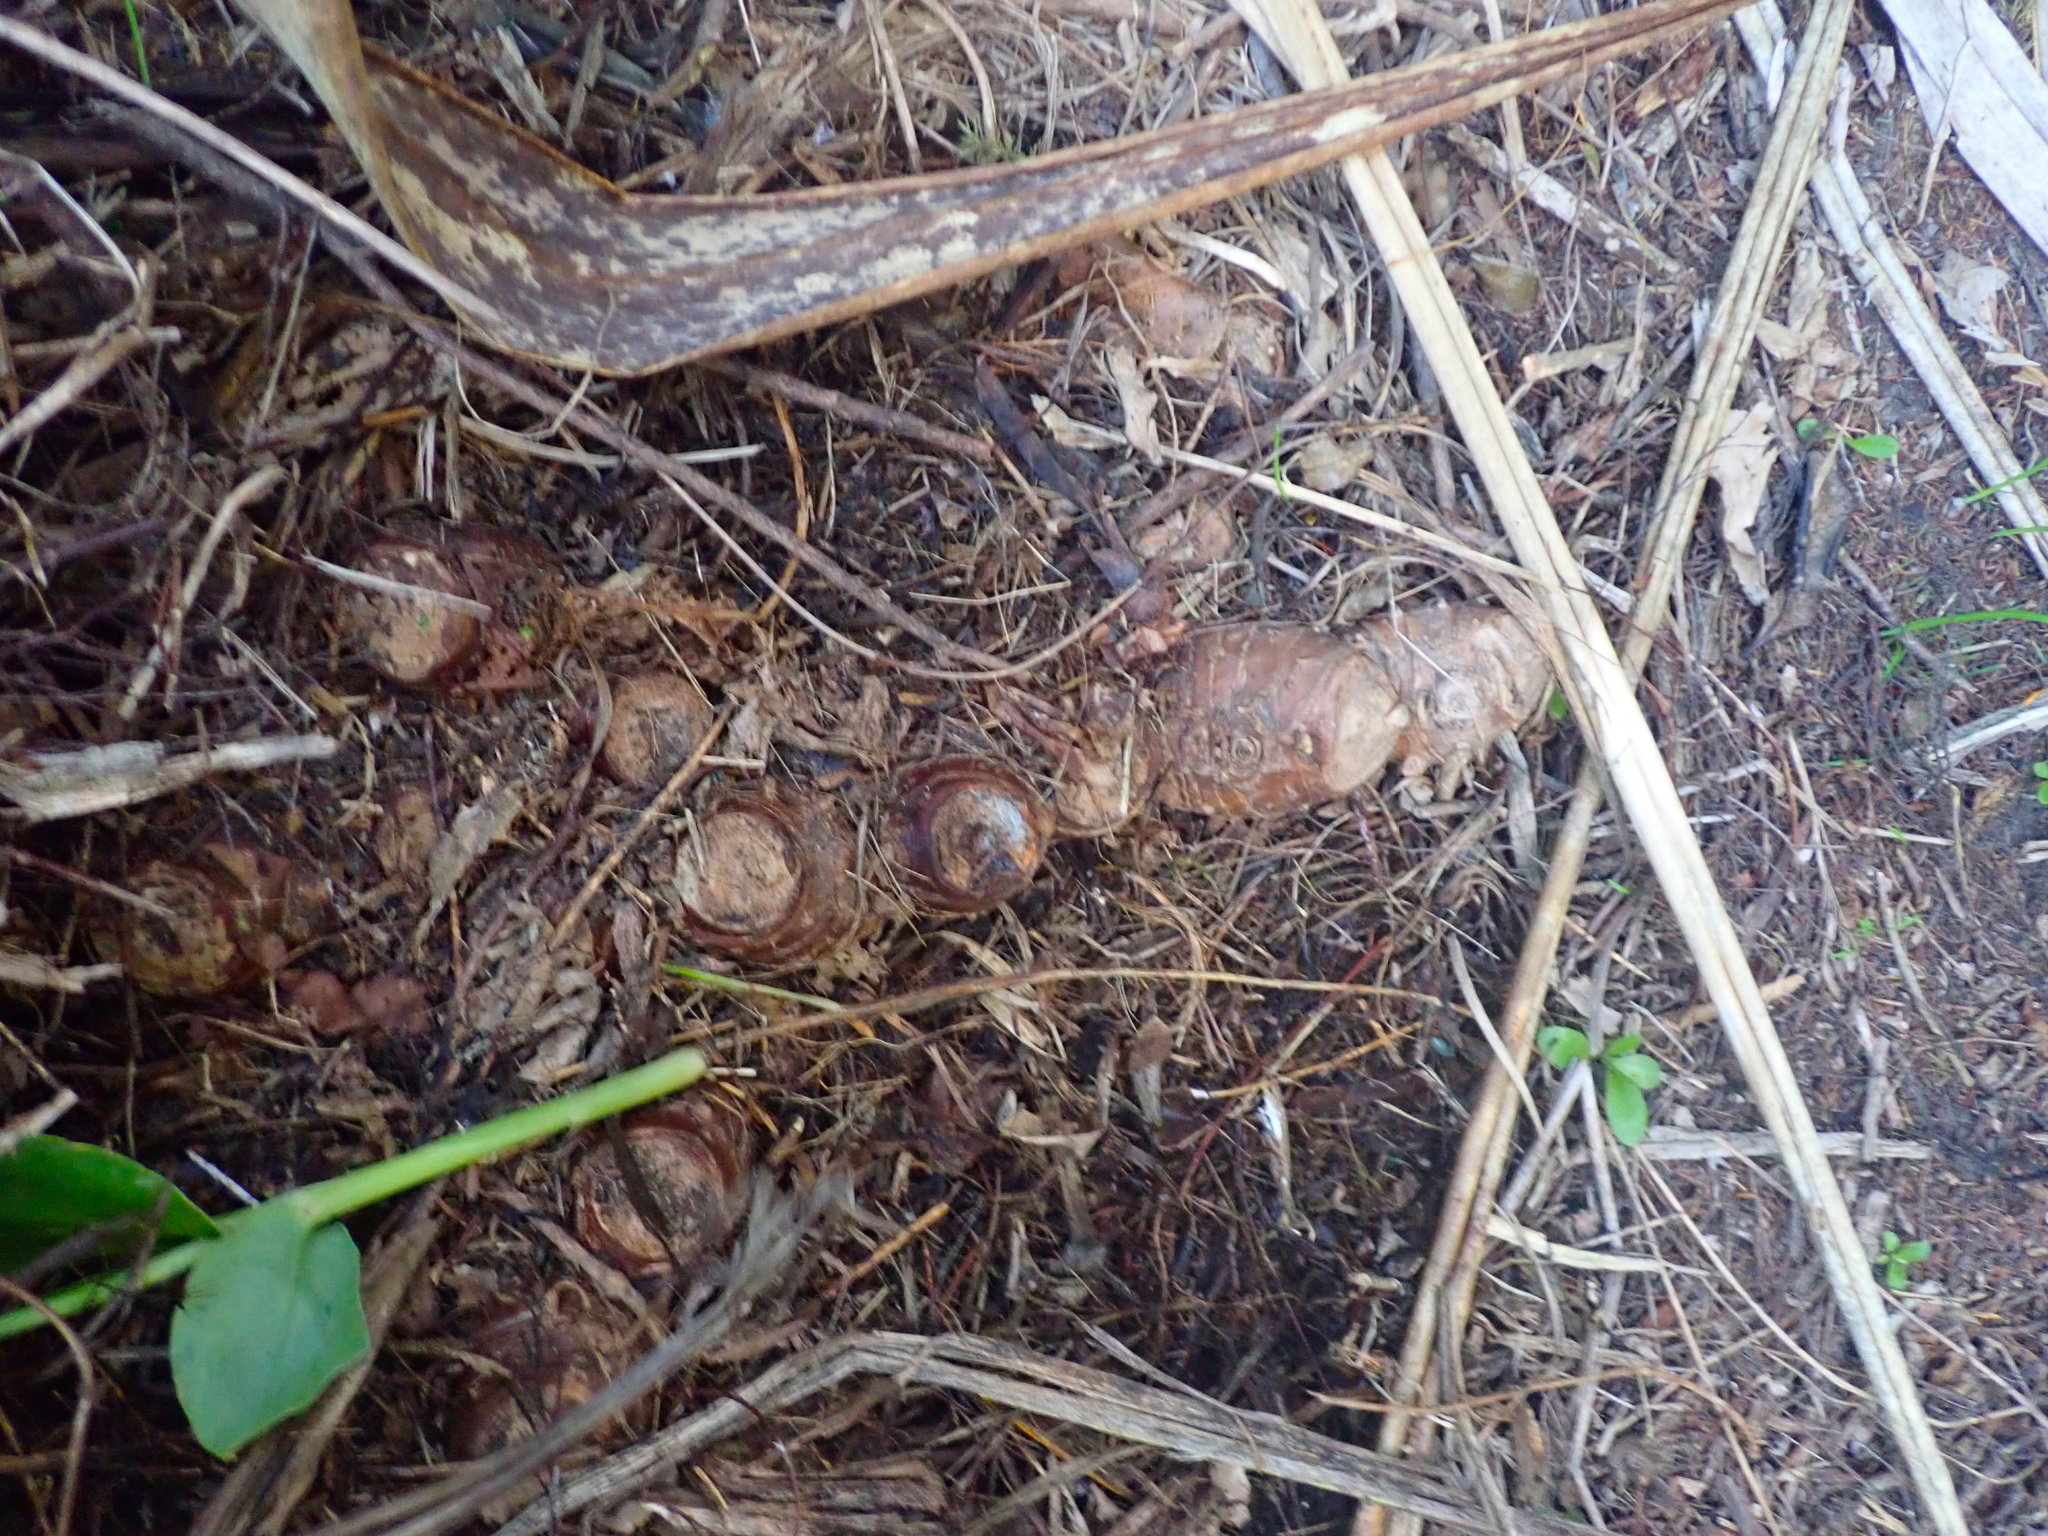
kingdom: Plantae
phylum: Tracheophyta
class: Liliopsida
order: Zingiberales
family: Zingiberaceae
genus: Hedychium
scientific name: Hedychium gardnerianum
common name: Himalayan ginger
